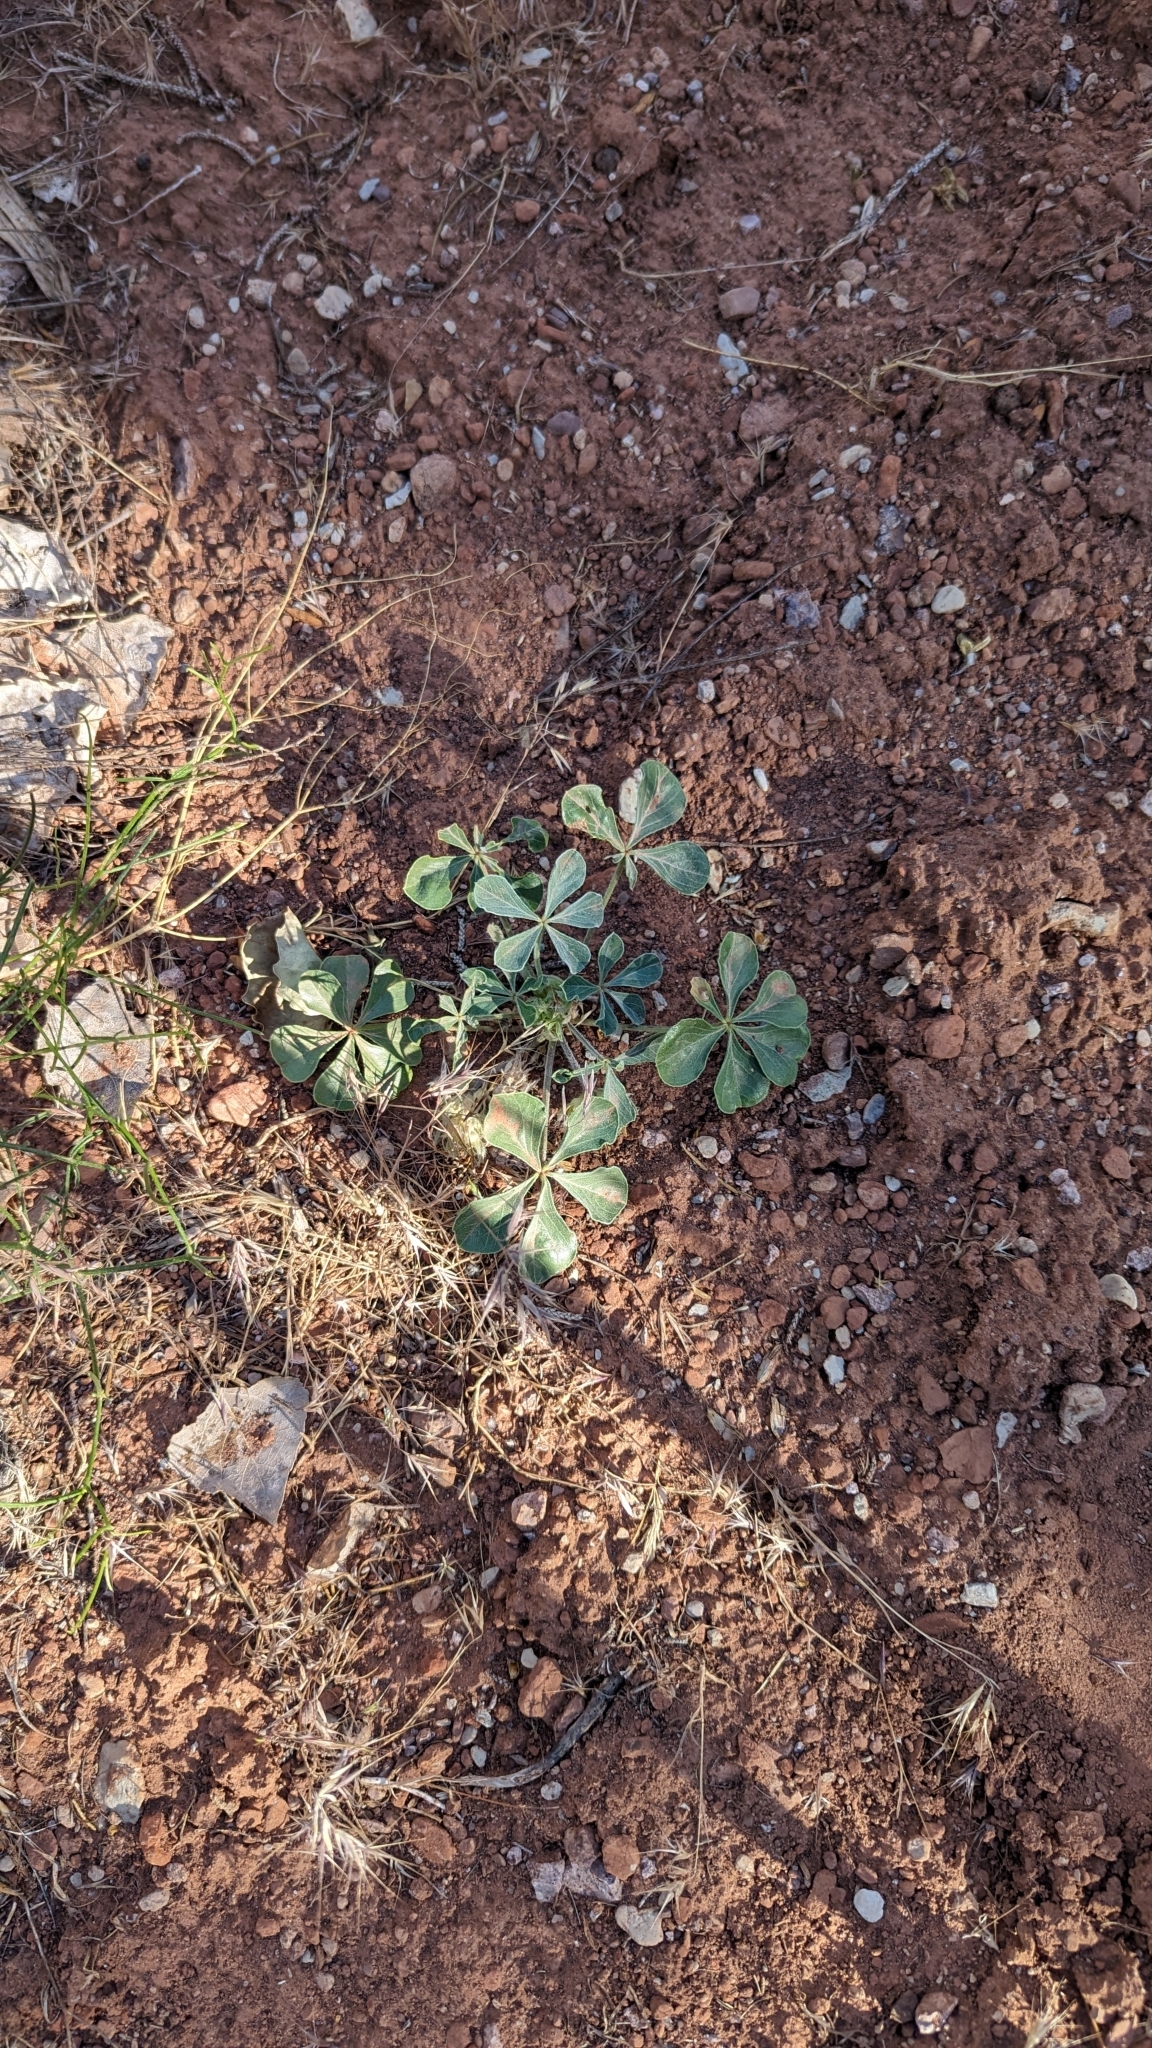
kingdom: Plantae
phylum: Tracheophyta
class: Magnoliopsida
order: Fabales
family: Fabaceae
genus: Pediomelum
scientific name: Pediomelum mephiticum
